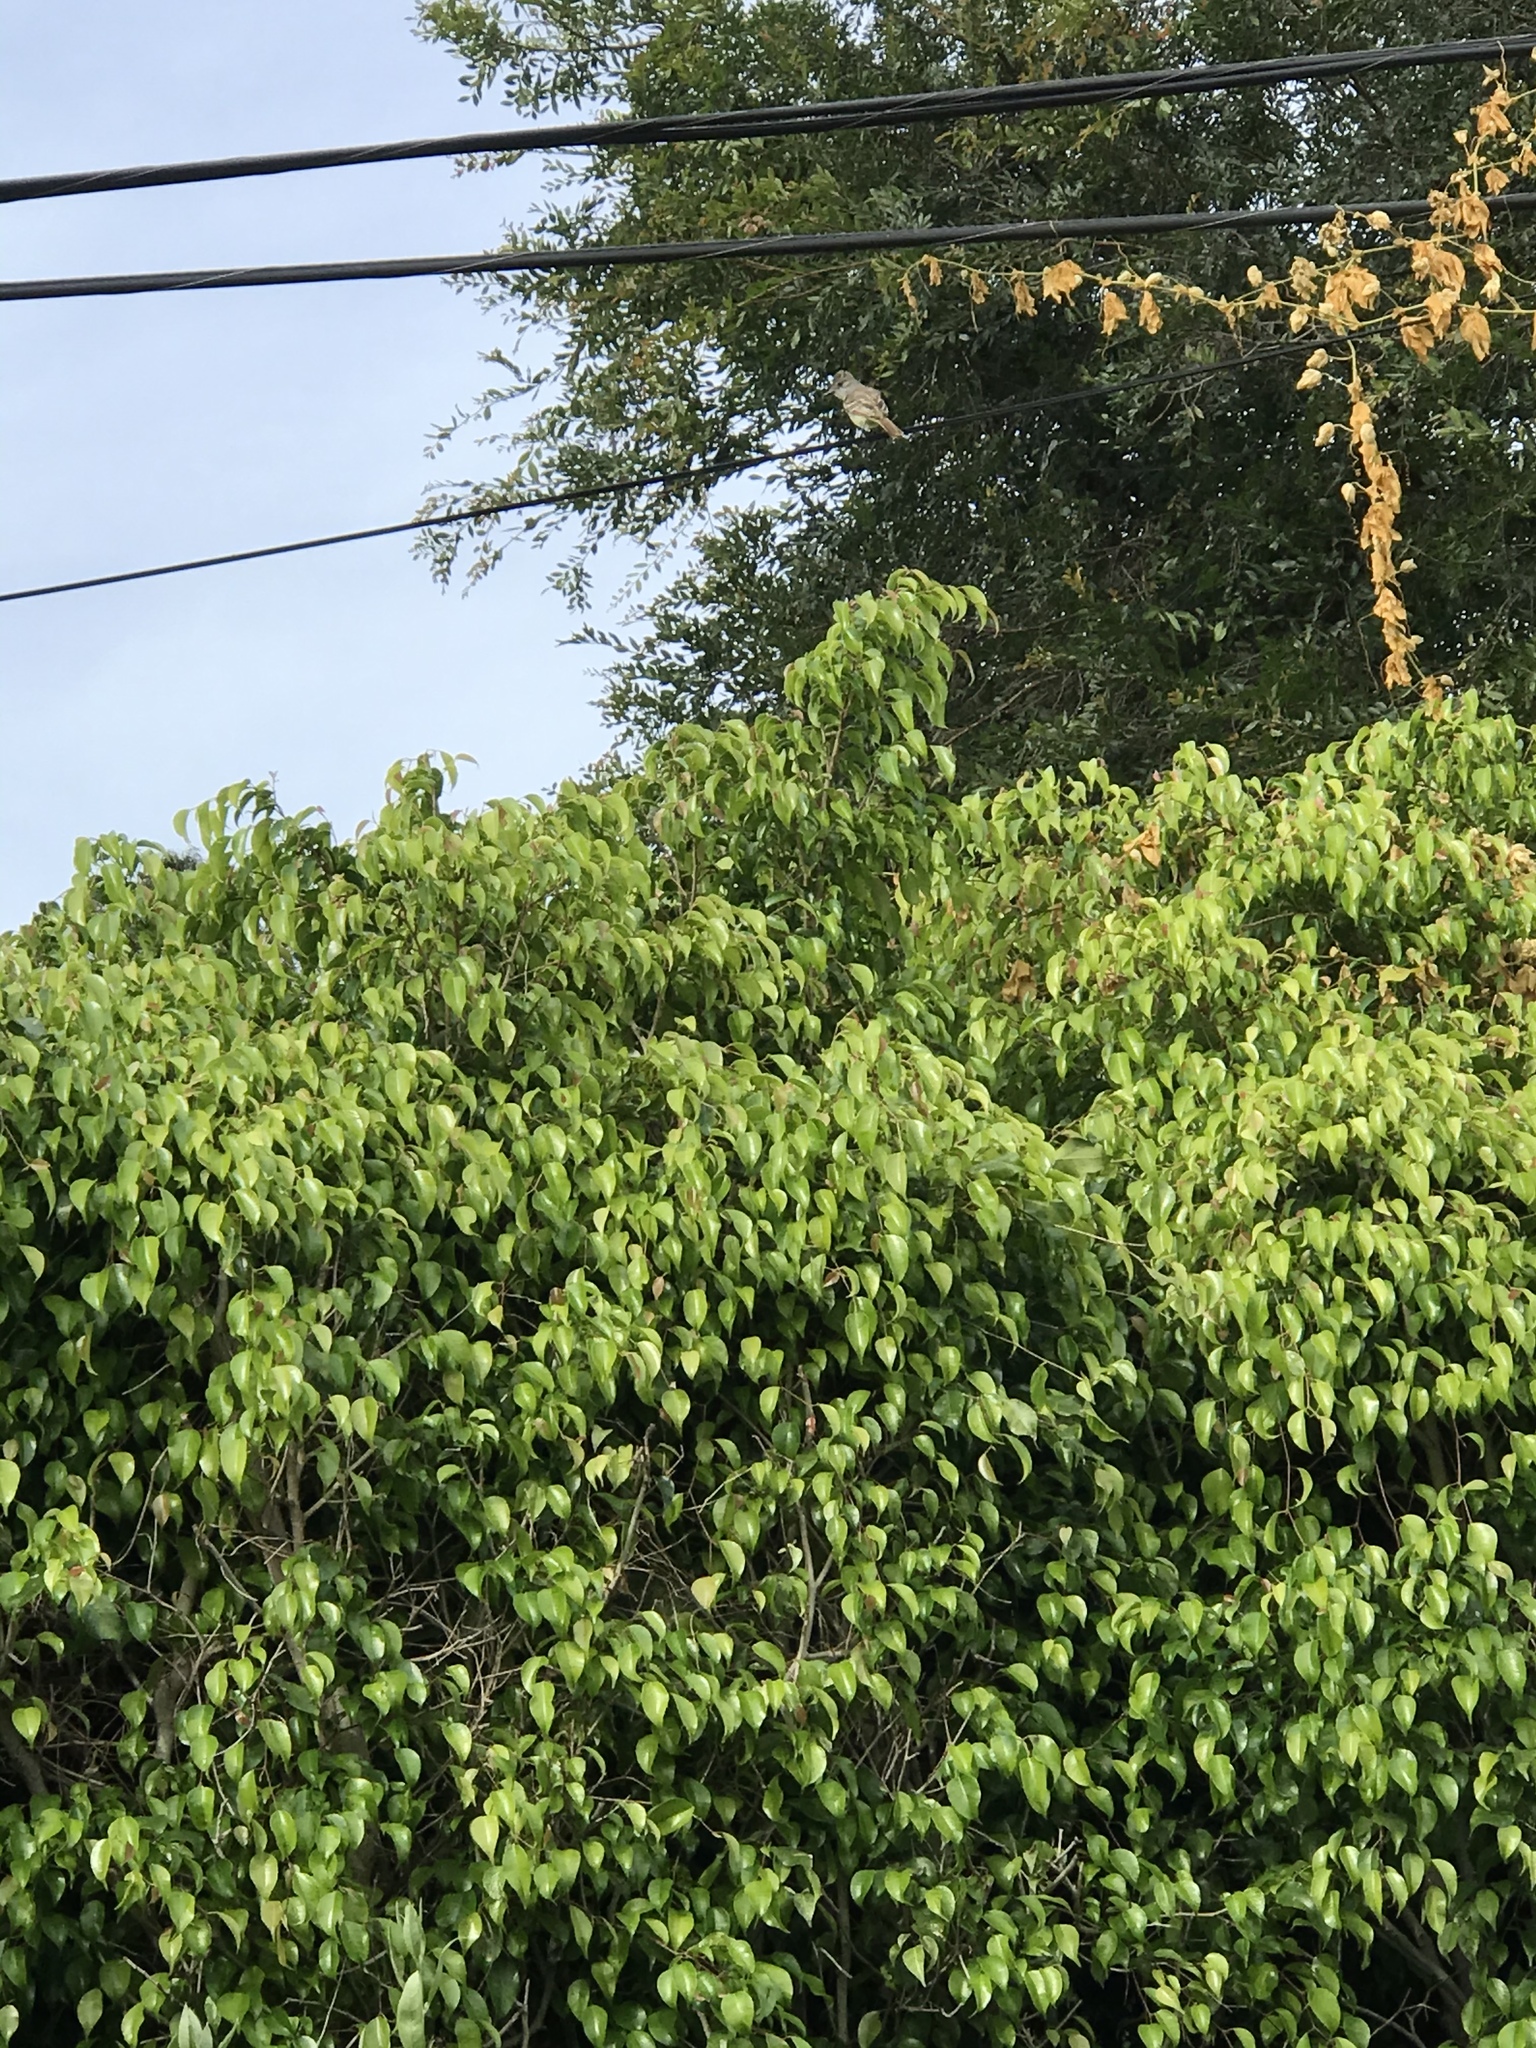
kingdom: Animalia
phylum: Chordata
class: Aves
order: Passeriformes
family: Tyrannidae
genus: Myiarchus
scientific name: Myiarchus cinerascens
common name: Ash-throated flycatcher
